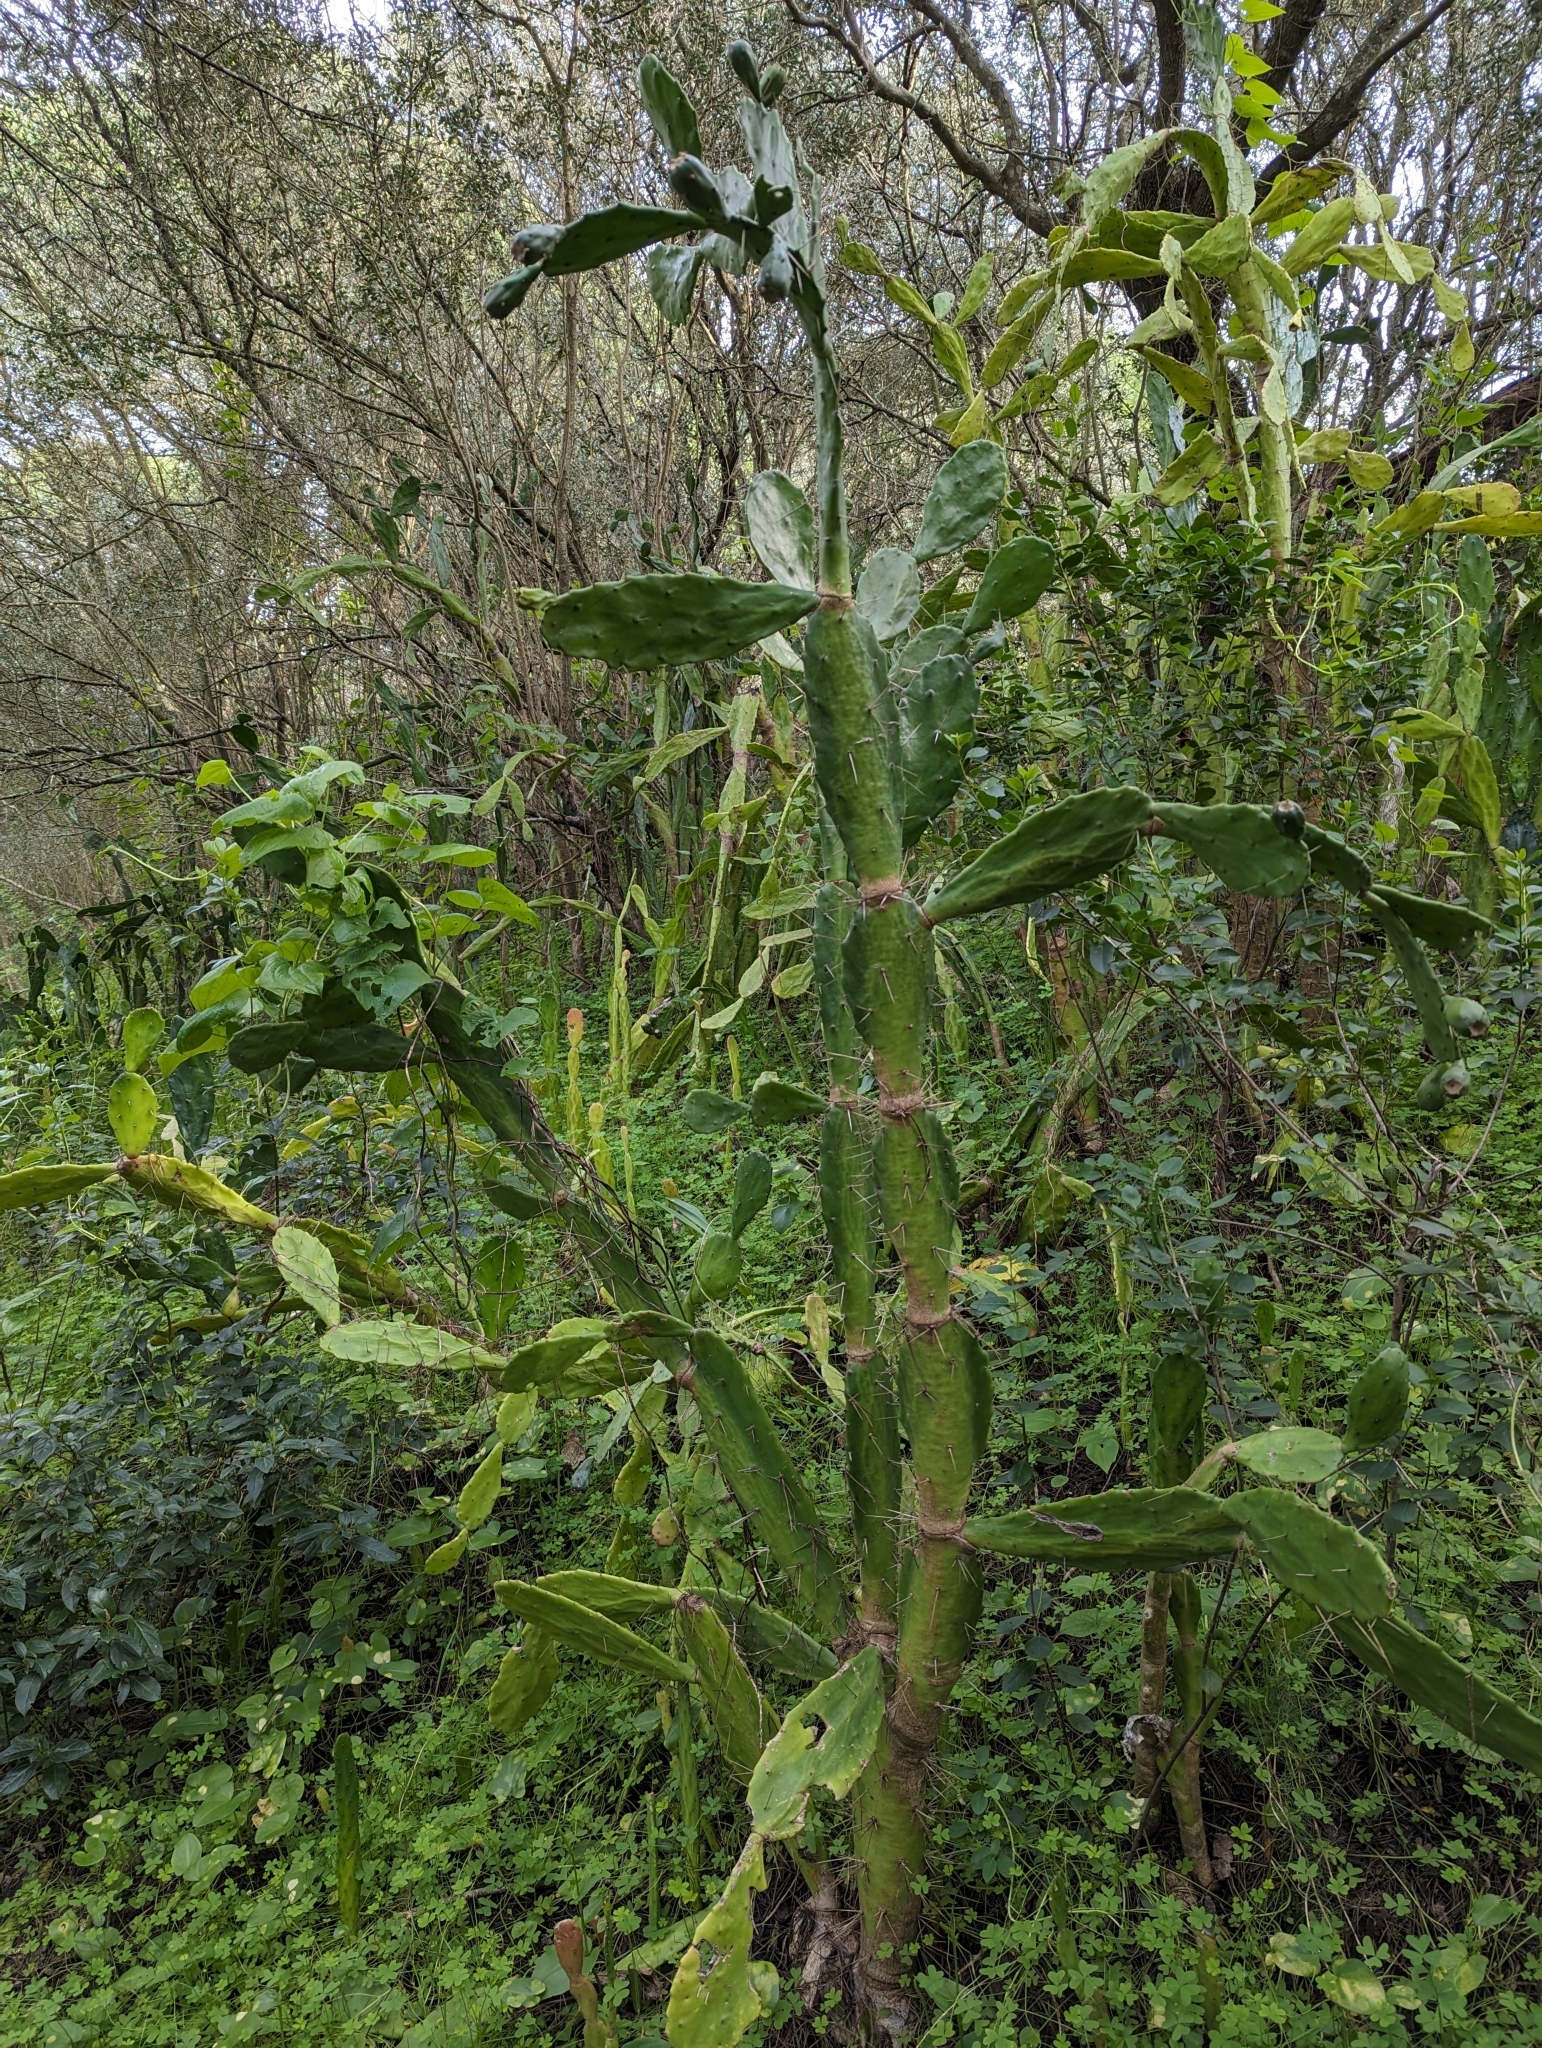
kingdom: Plantae
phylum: Tracheophyta
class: Magnoliopsida
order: Caryophyllales
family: Cactaceae
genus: Opuntia
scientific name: Opuntia monacantha
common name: Common pricklypear
